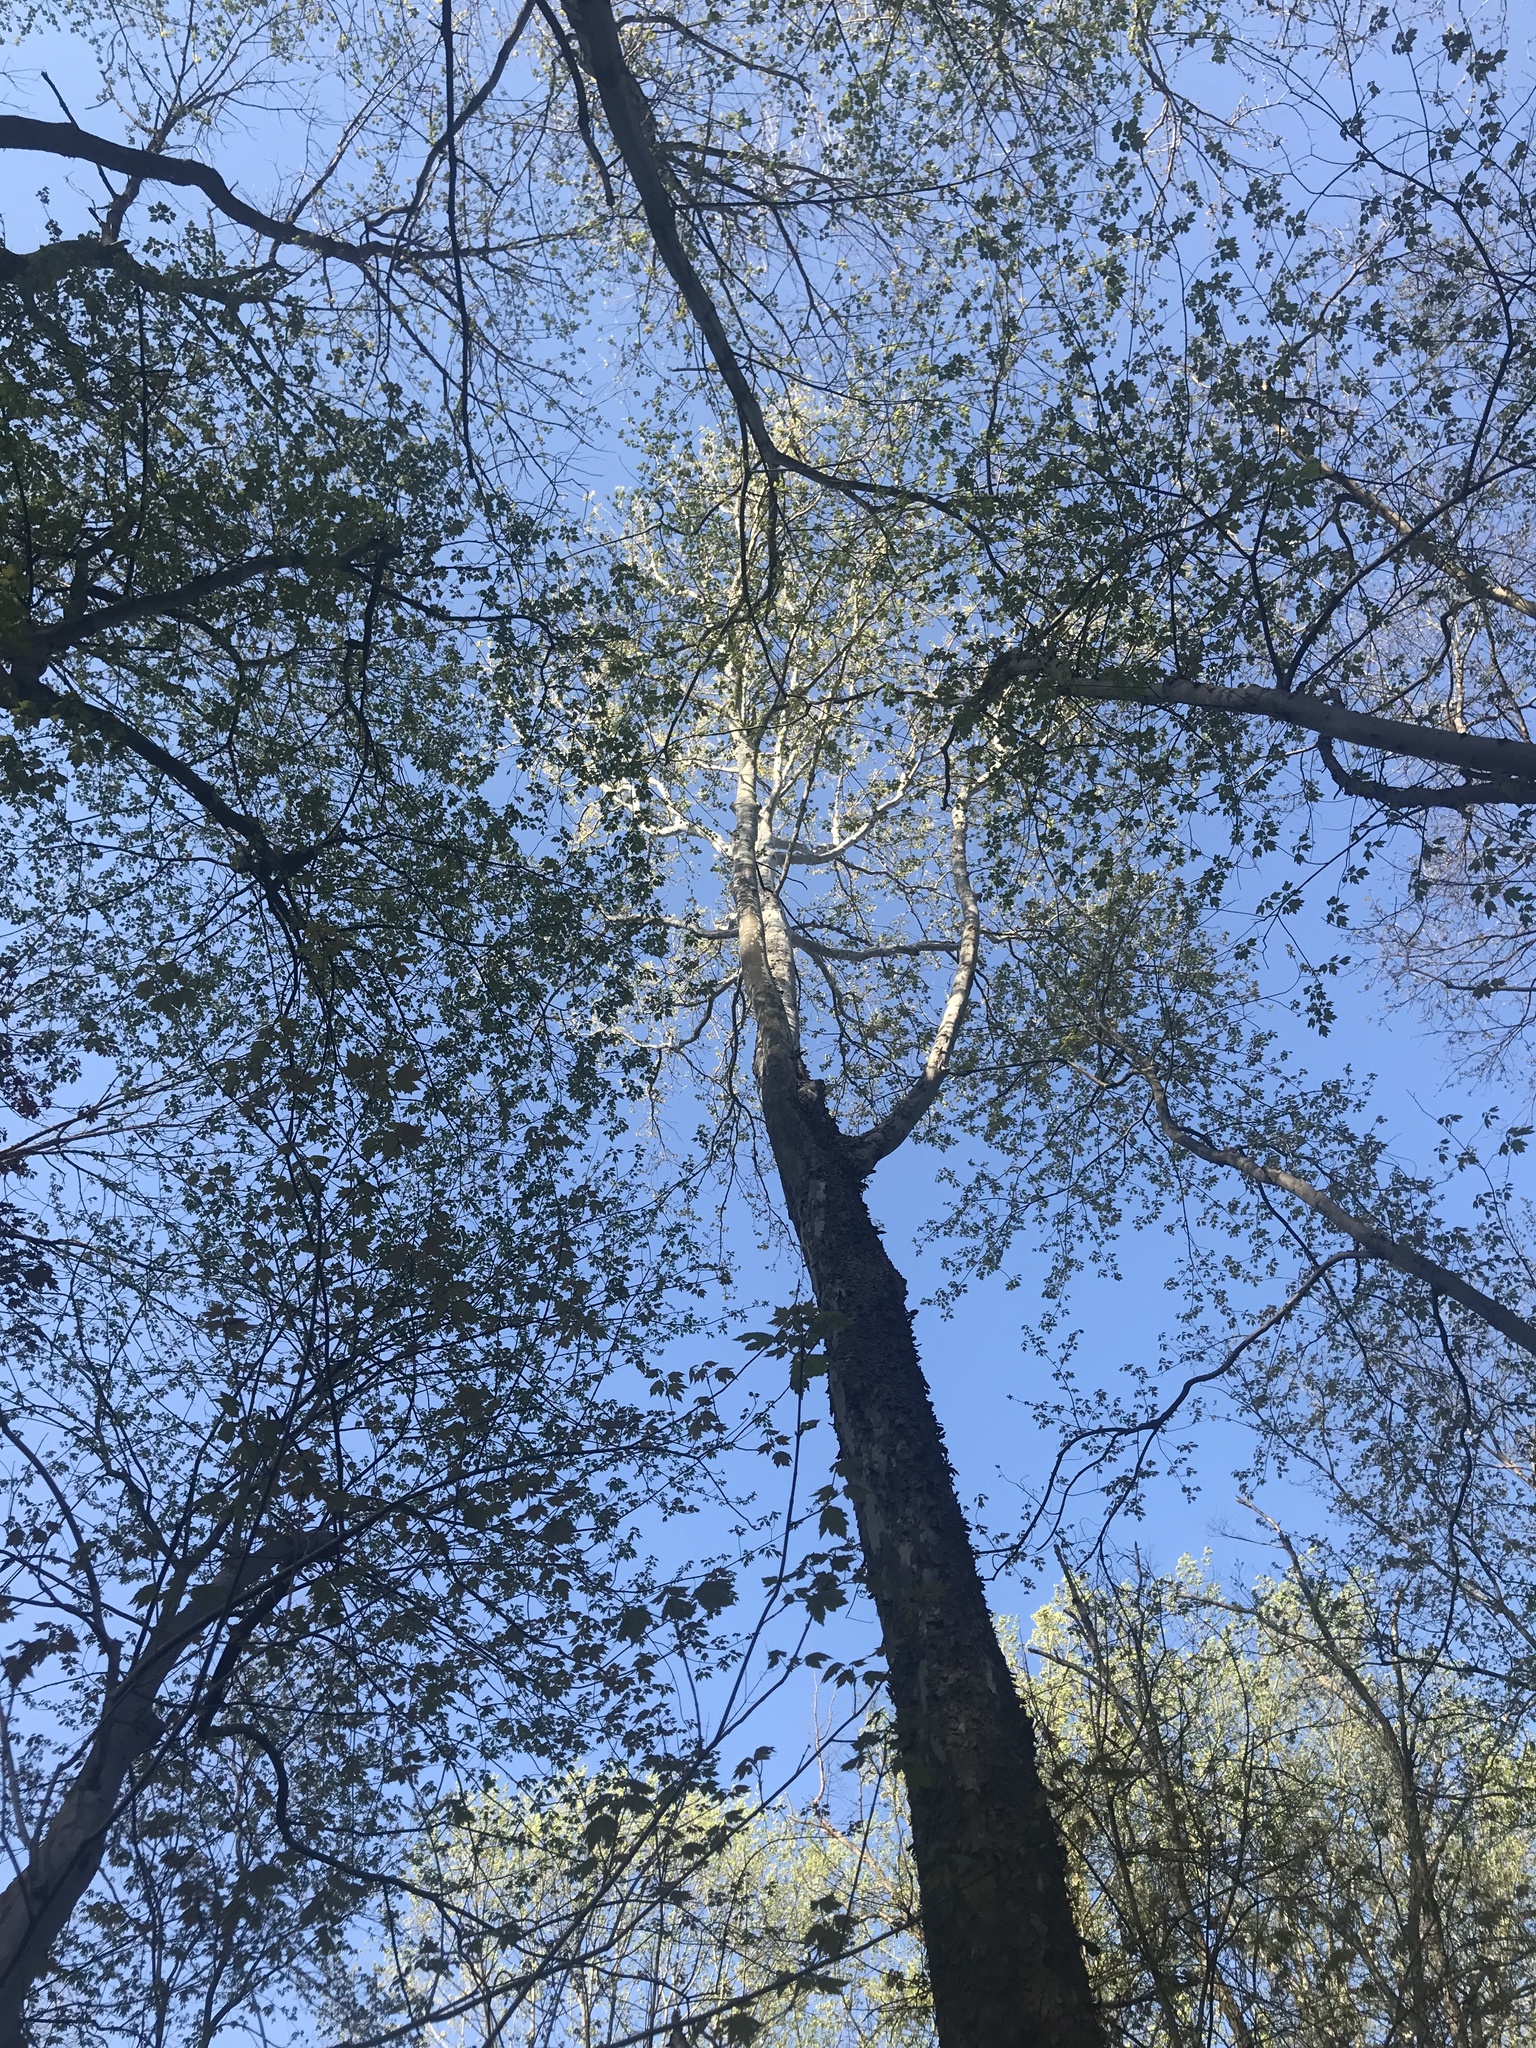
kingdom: Plantae
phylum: Tracheophyta
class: Magnoliopsida
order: Proteales
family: Platanaceae
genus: Platanus
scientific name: Platanus occidentalis
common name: American sycamore
